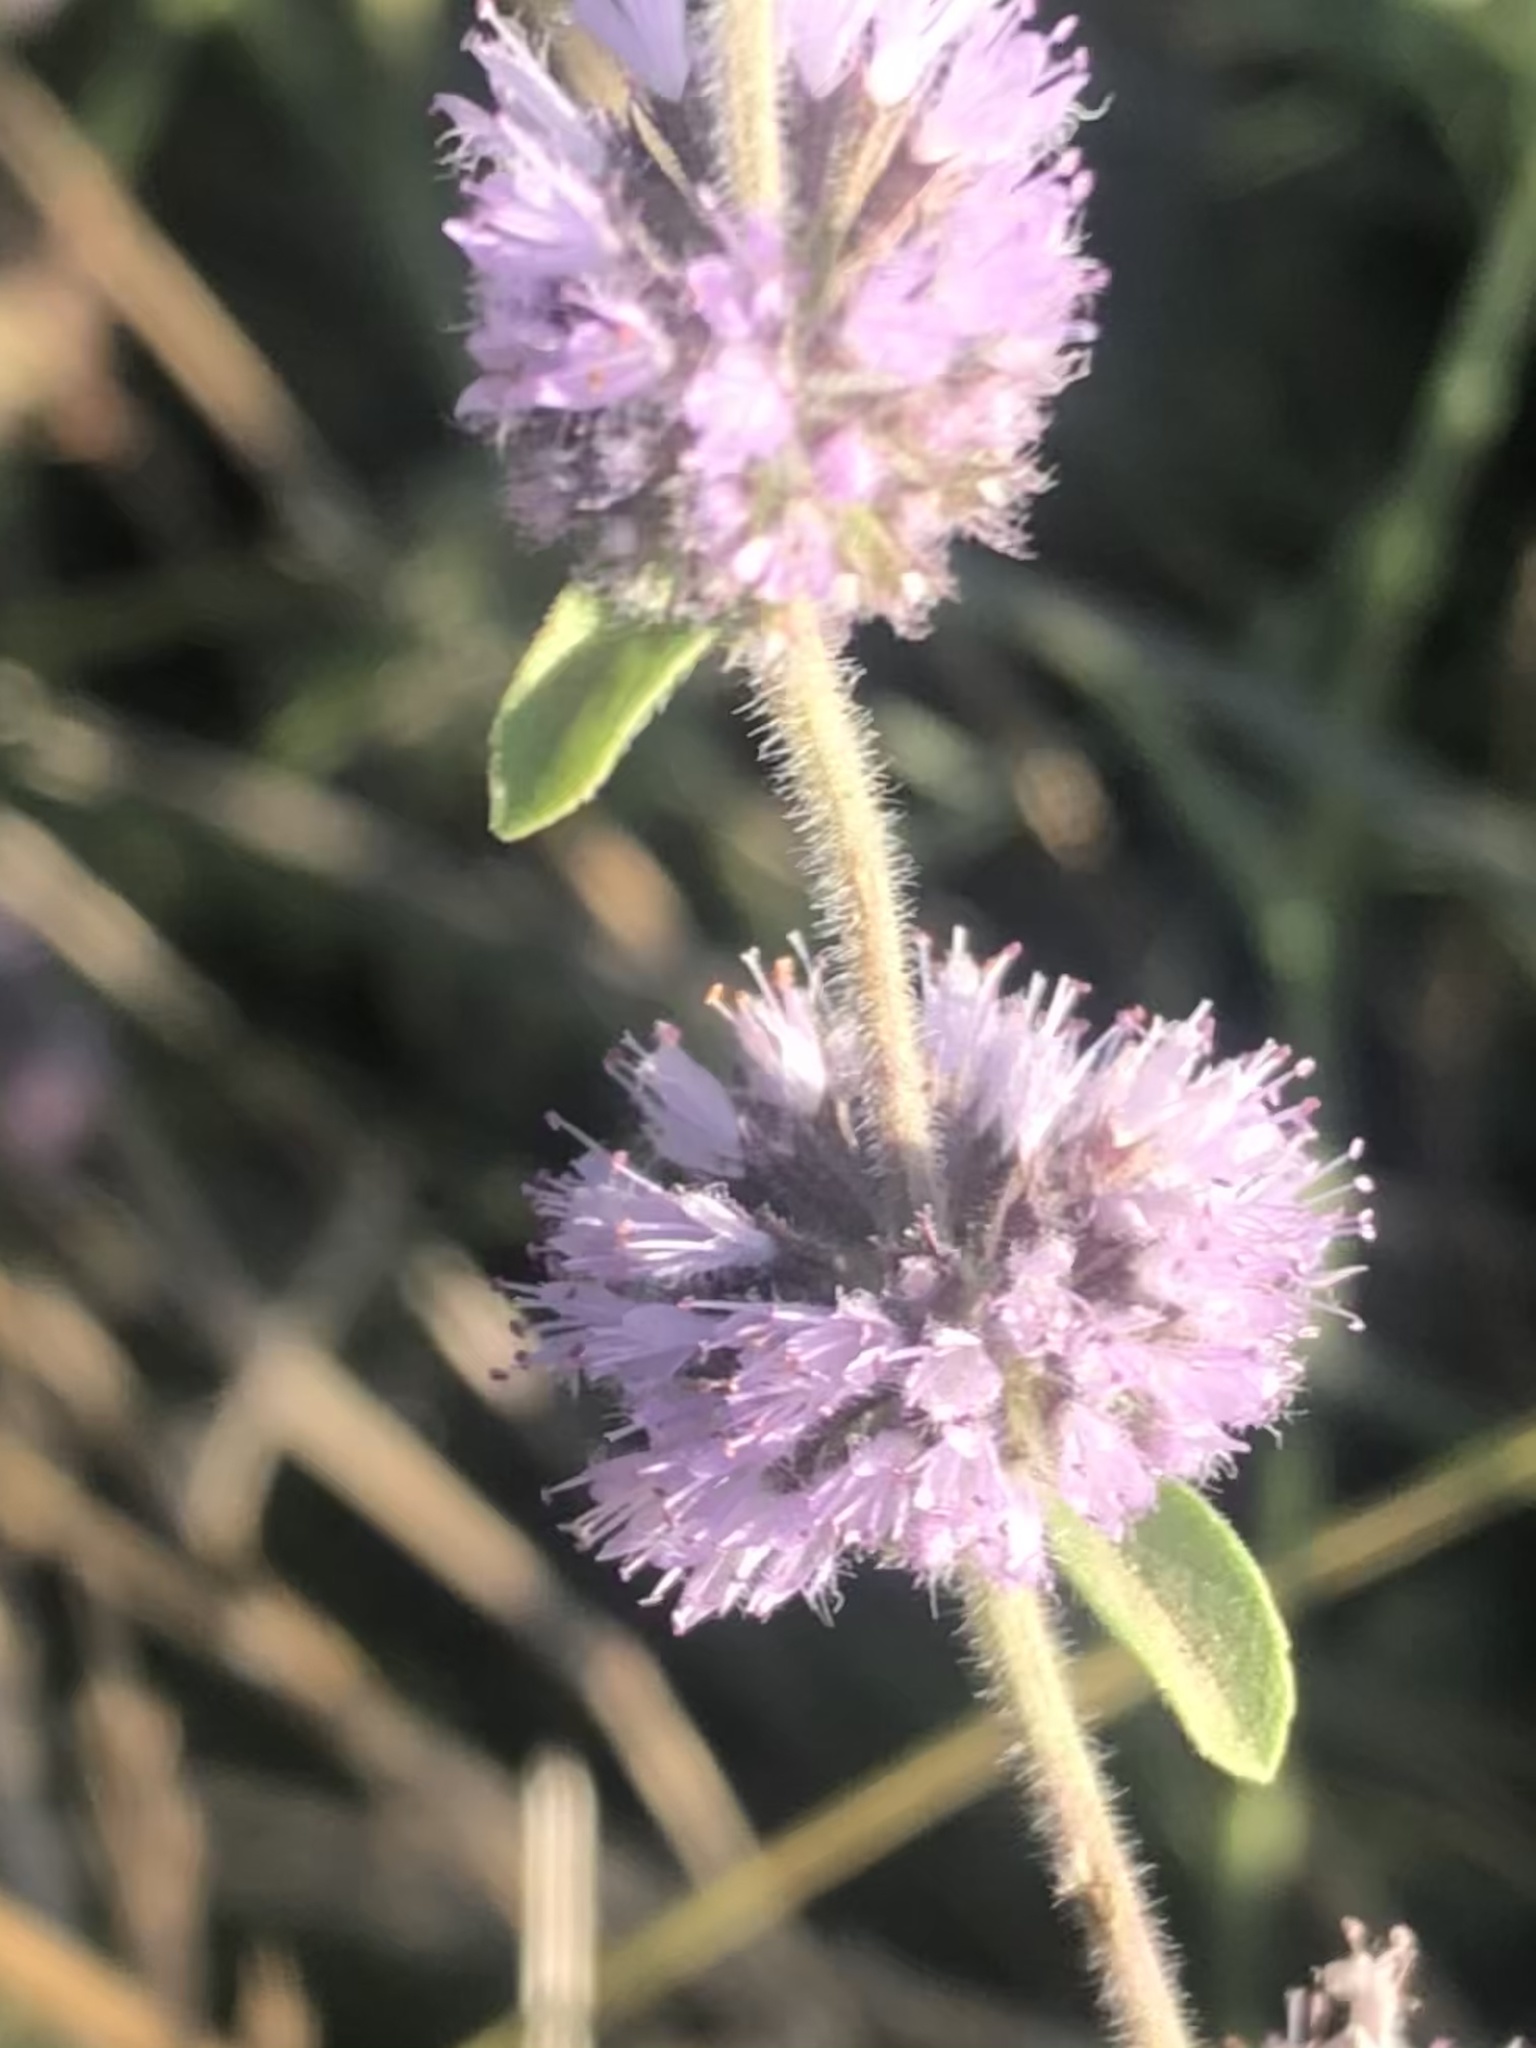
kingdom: Plantae
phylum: Tracheophyta
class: Magnoliopsida
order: Lamiales
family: Lamiaceae
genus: Mentha
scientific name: Mentha pulegium
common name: Pennyroyal
